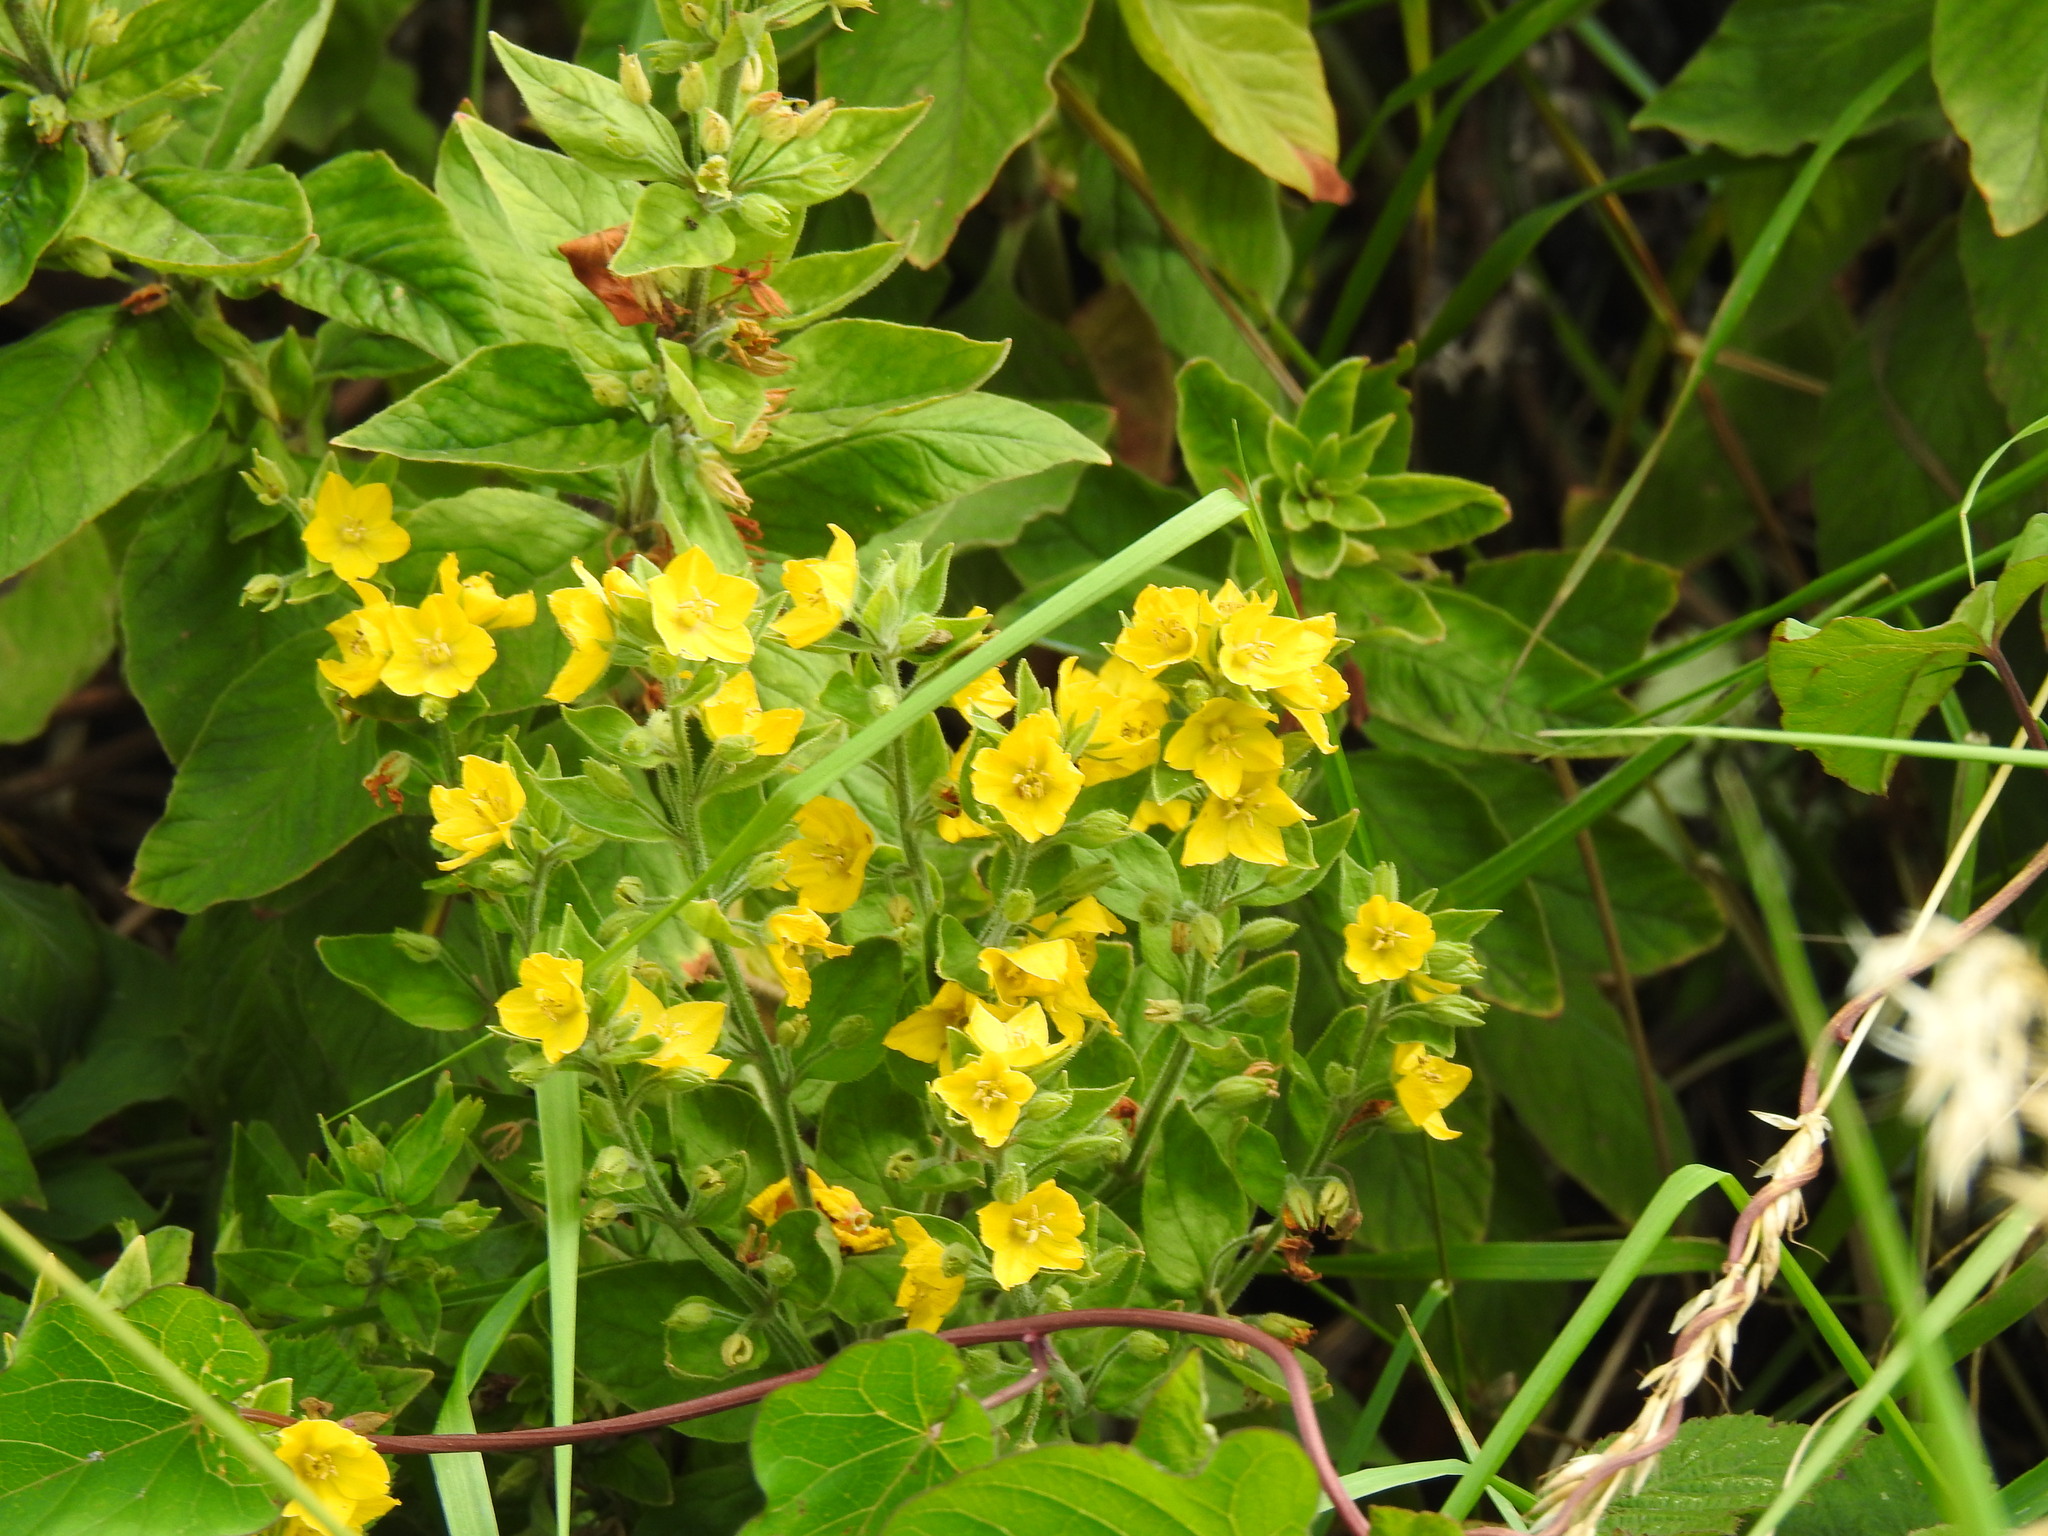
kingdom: Plantae
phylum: Tracheophyta
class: Magnoliopsida
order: Ericales
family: Primulaceae
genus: Lysimachia
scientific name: Lysimachia punctata
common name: Dotted loosestrife
